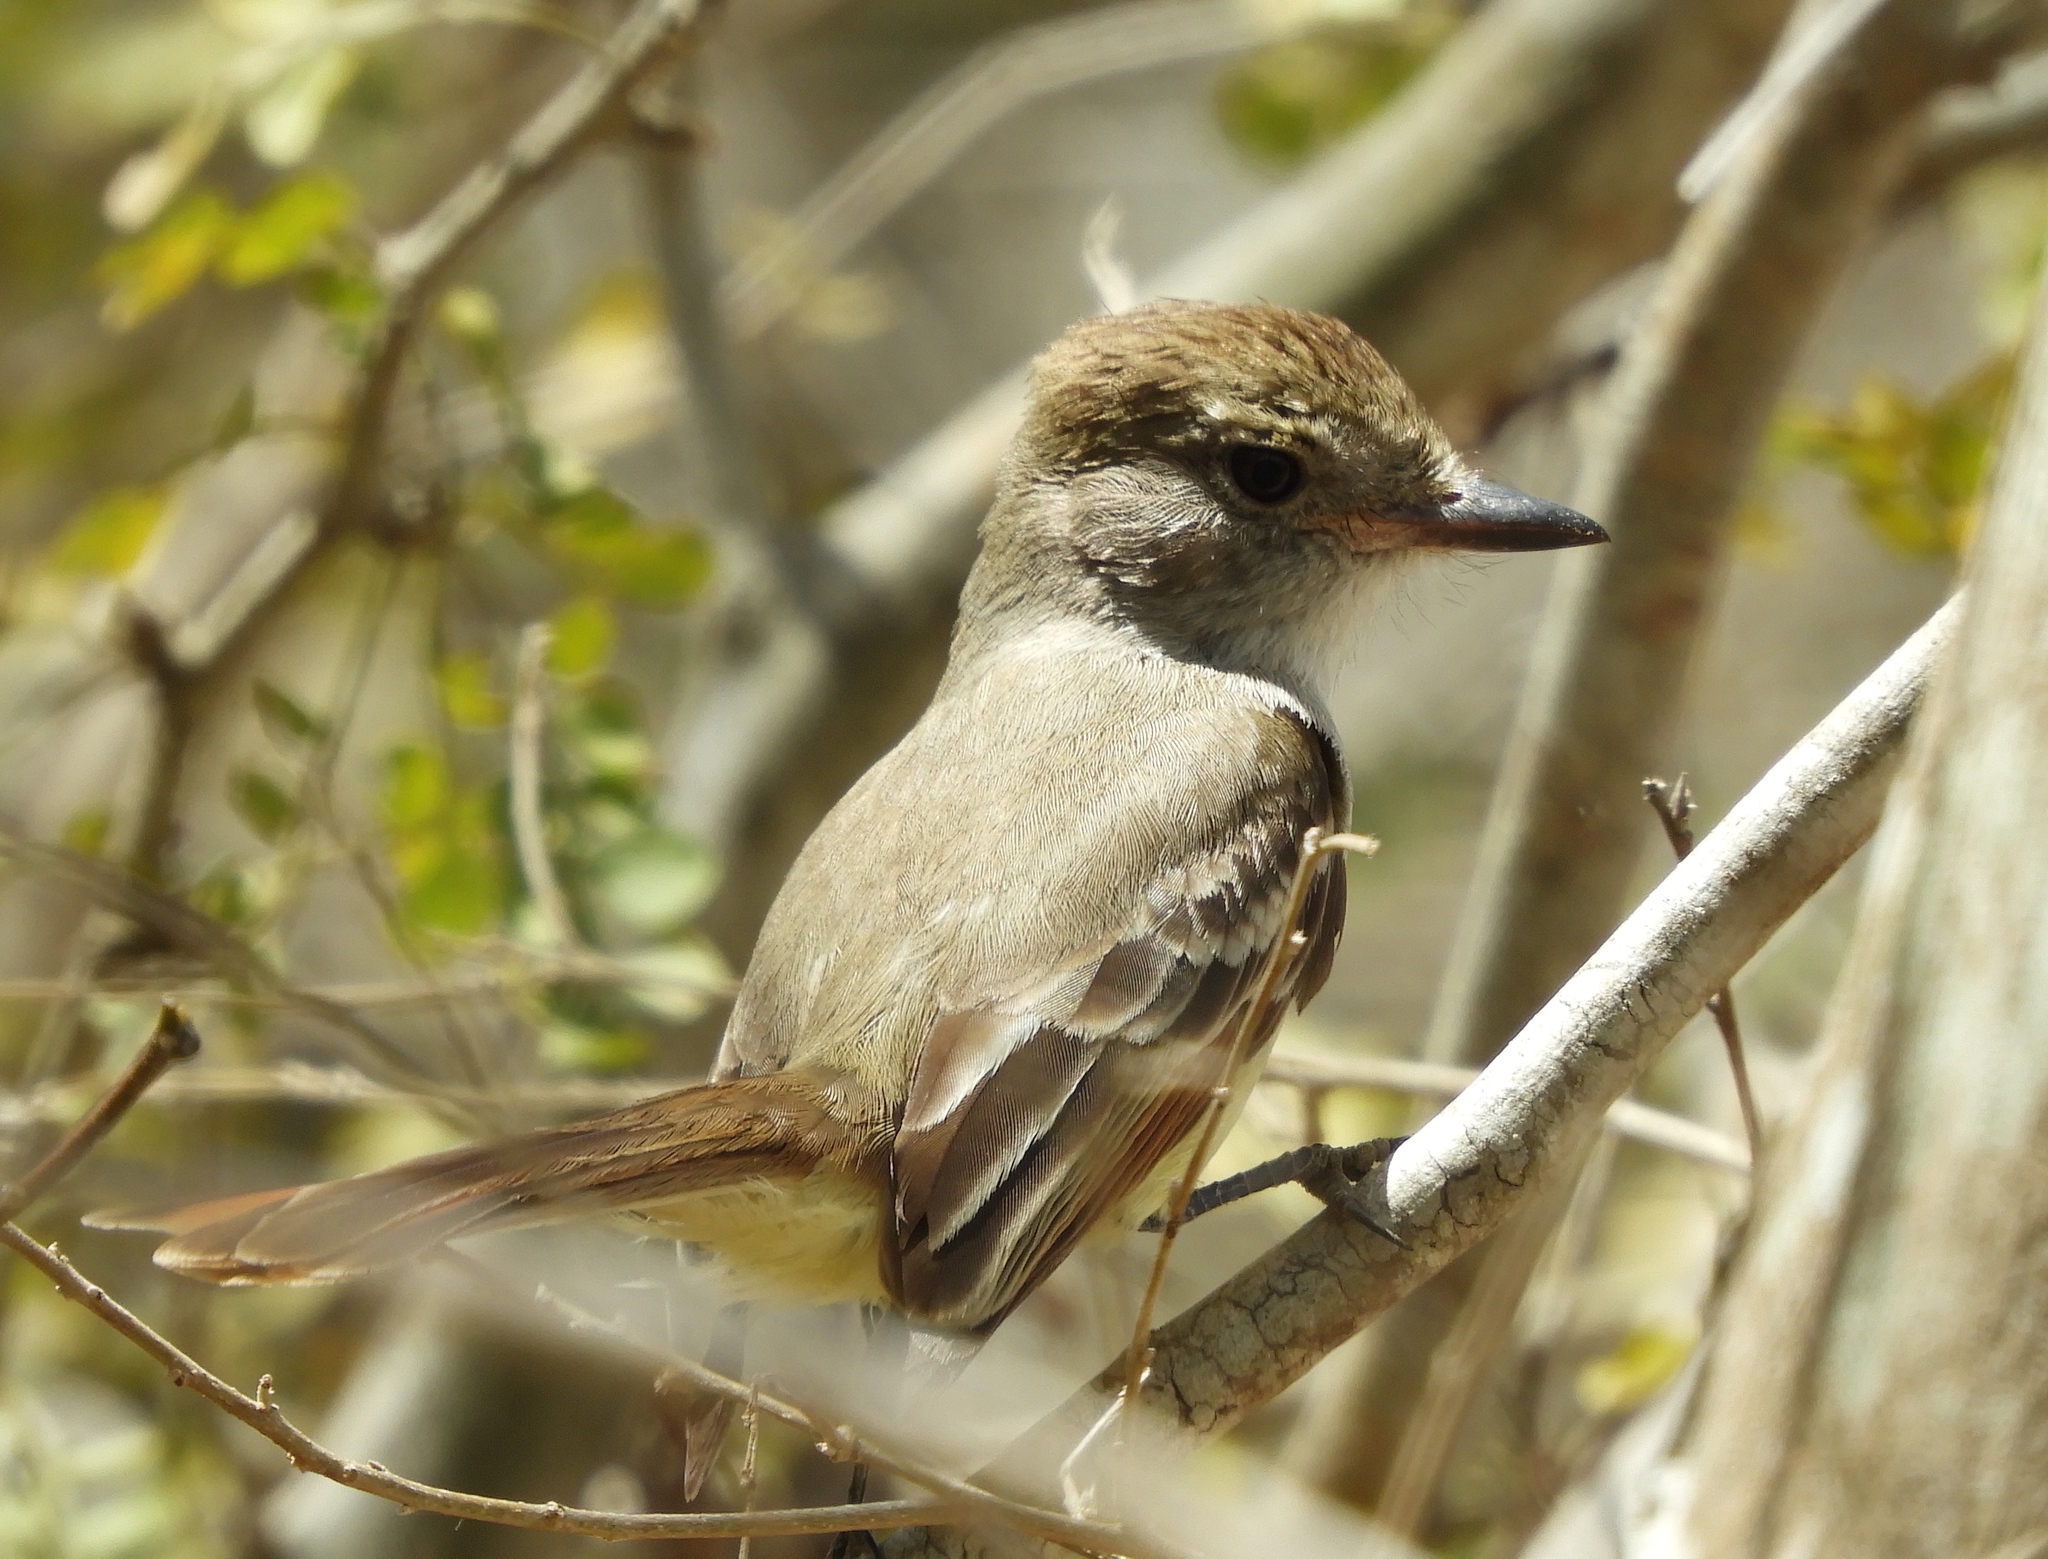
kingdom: Animalia
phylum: Chordata
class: Aves
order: Passeriformes
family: Tyrannidae
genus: Myiarchus
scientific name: Myiarchus
